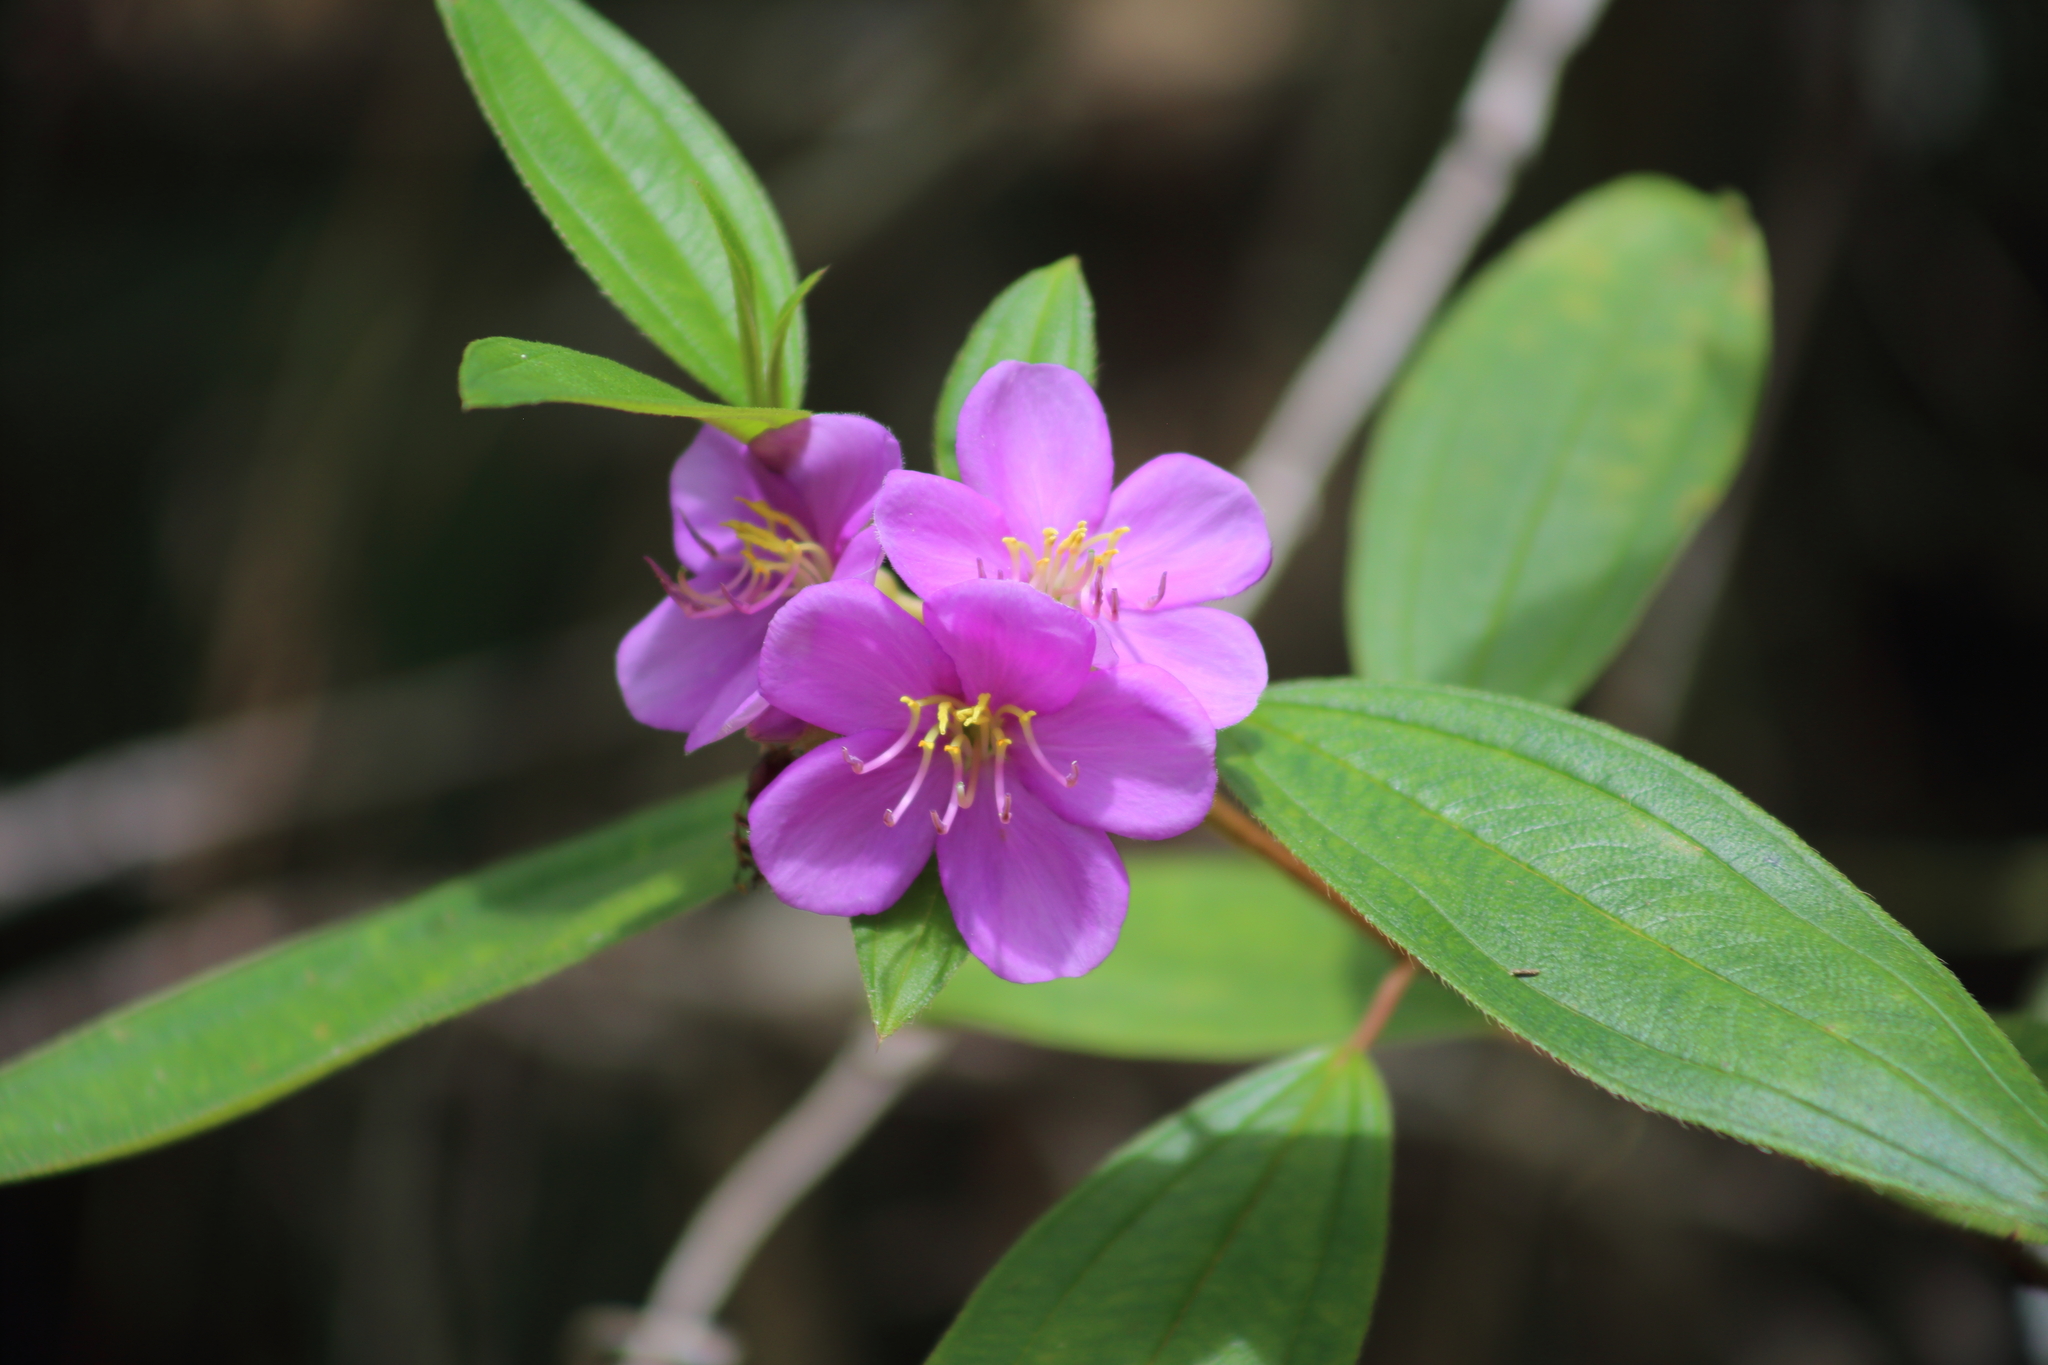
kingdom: Plantae
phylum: Tracheophyta
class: Magnoliopsida
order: Myrtales
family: Melastomataceae
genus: Melastoma
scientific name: Melastoma malabathricum
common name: Indian-rhododendron
